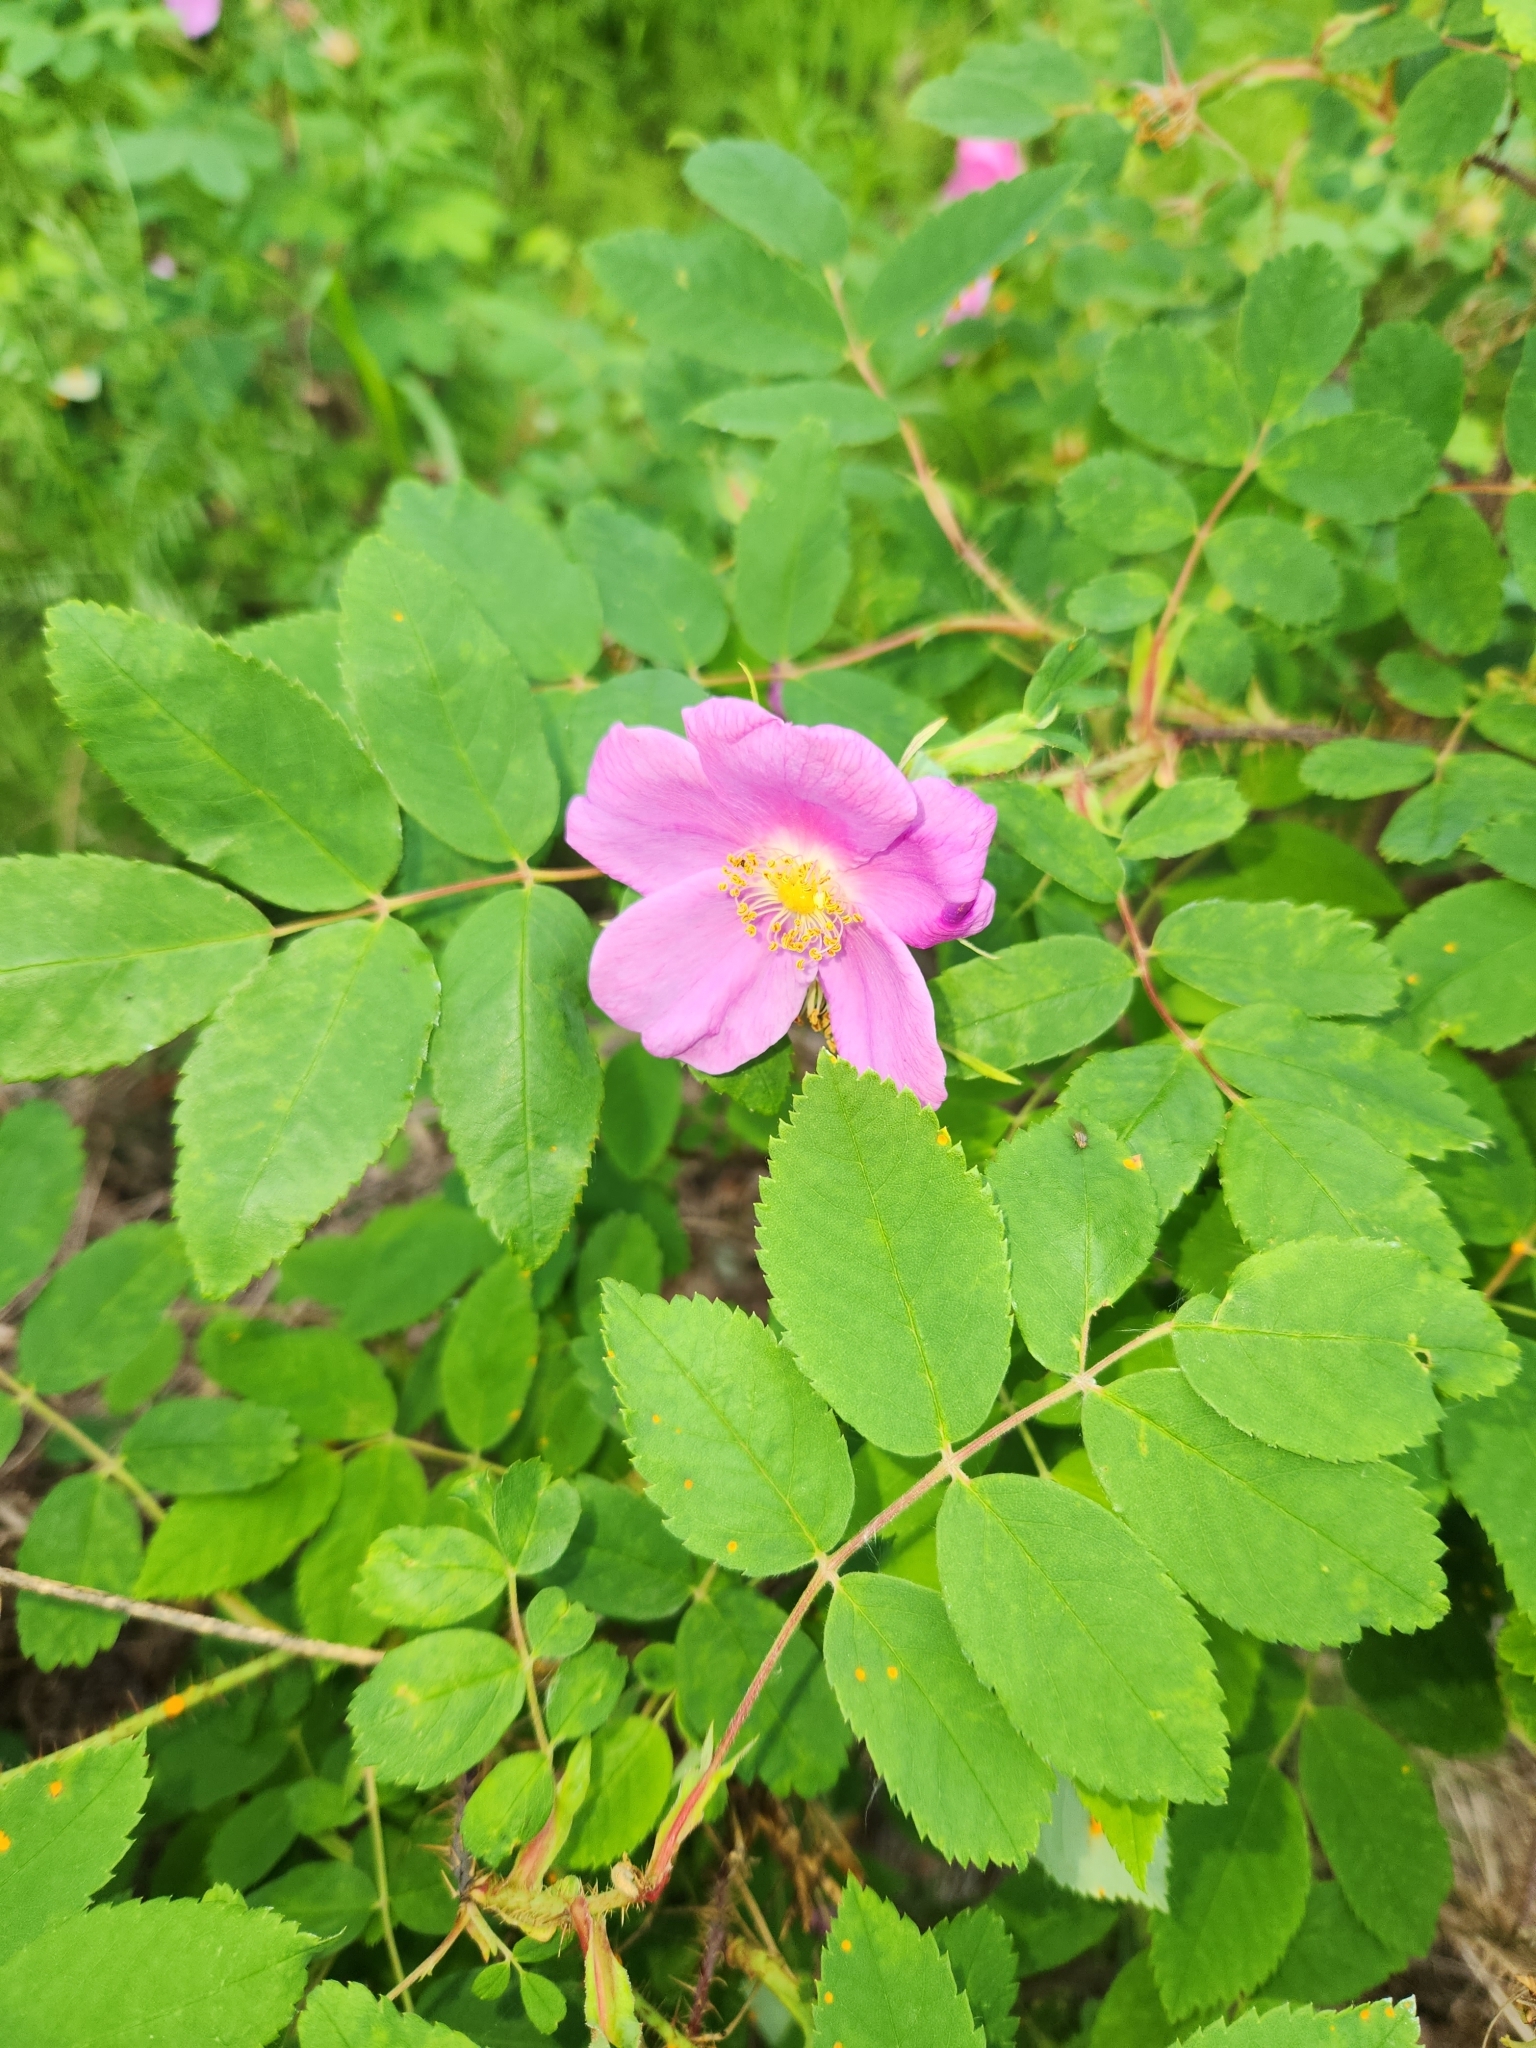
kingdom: Plantae
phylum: Tracheophyta
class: Magnoliopsida
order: Rosales
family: Rosaceae
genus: Rosa
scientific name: Rosa acicularis
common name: Prickly rose
